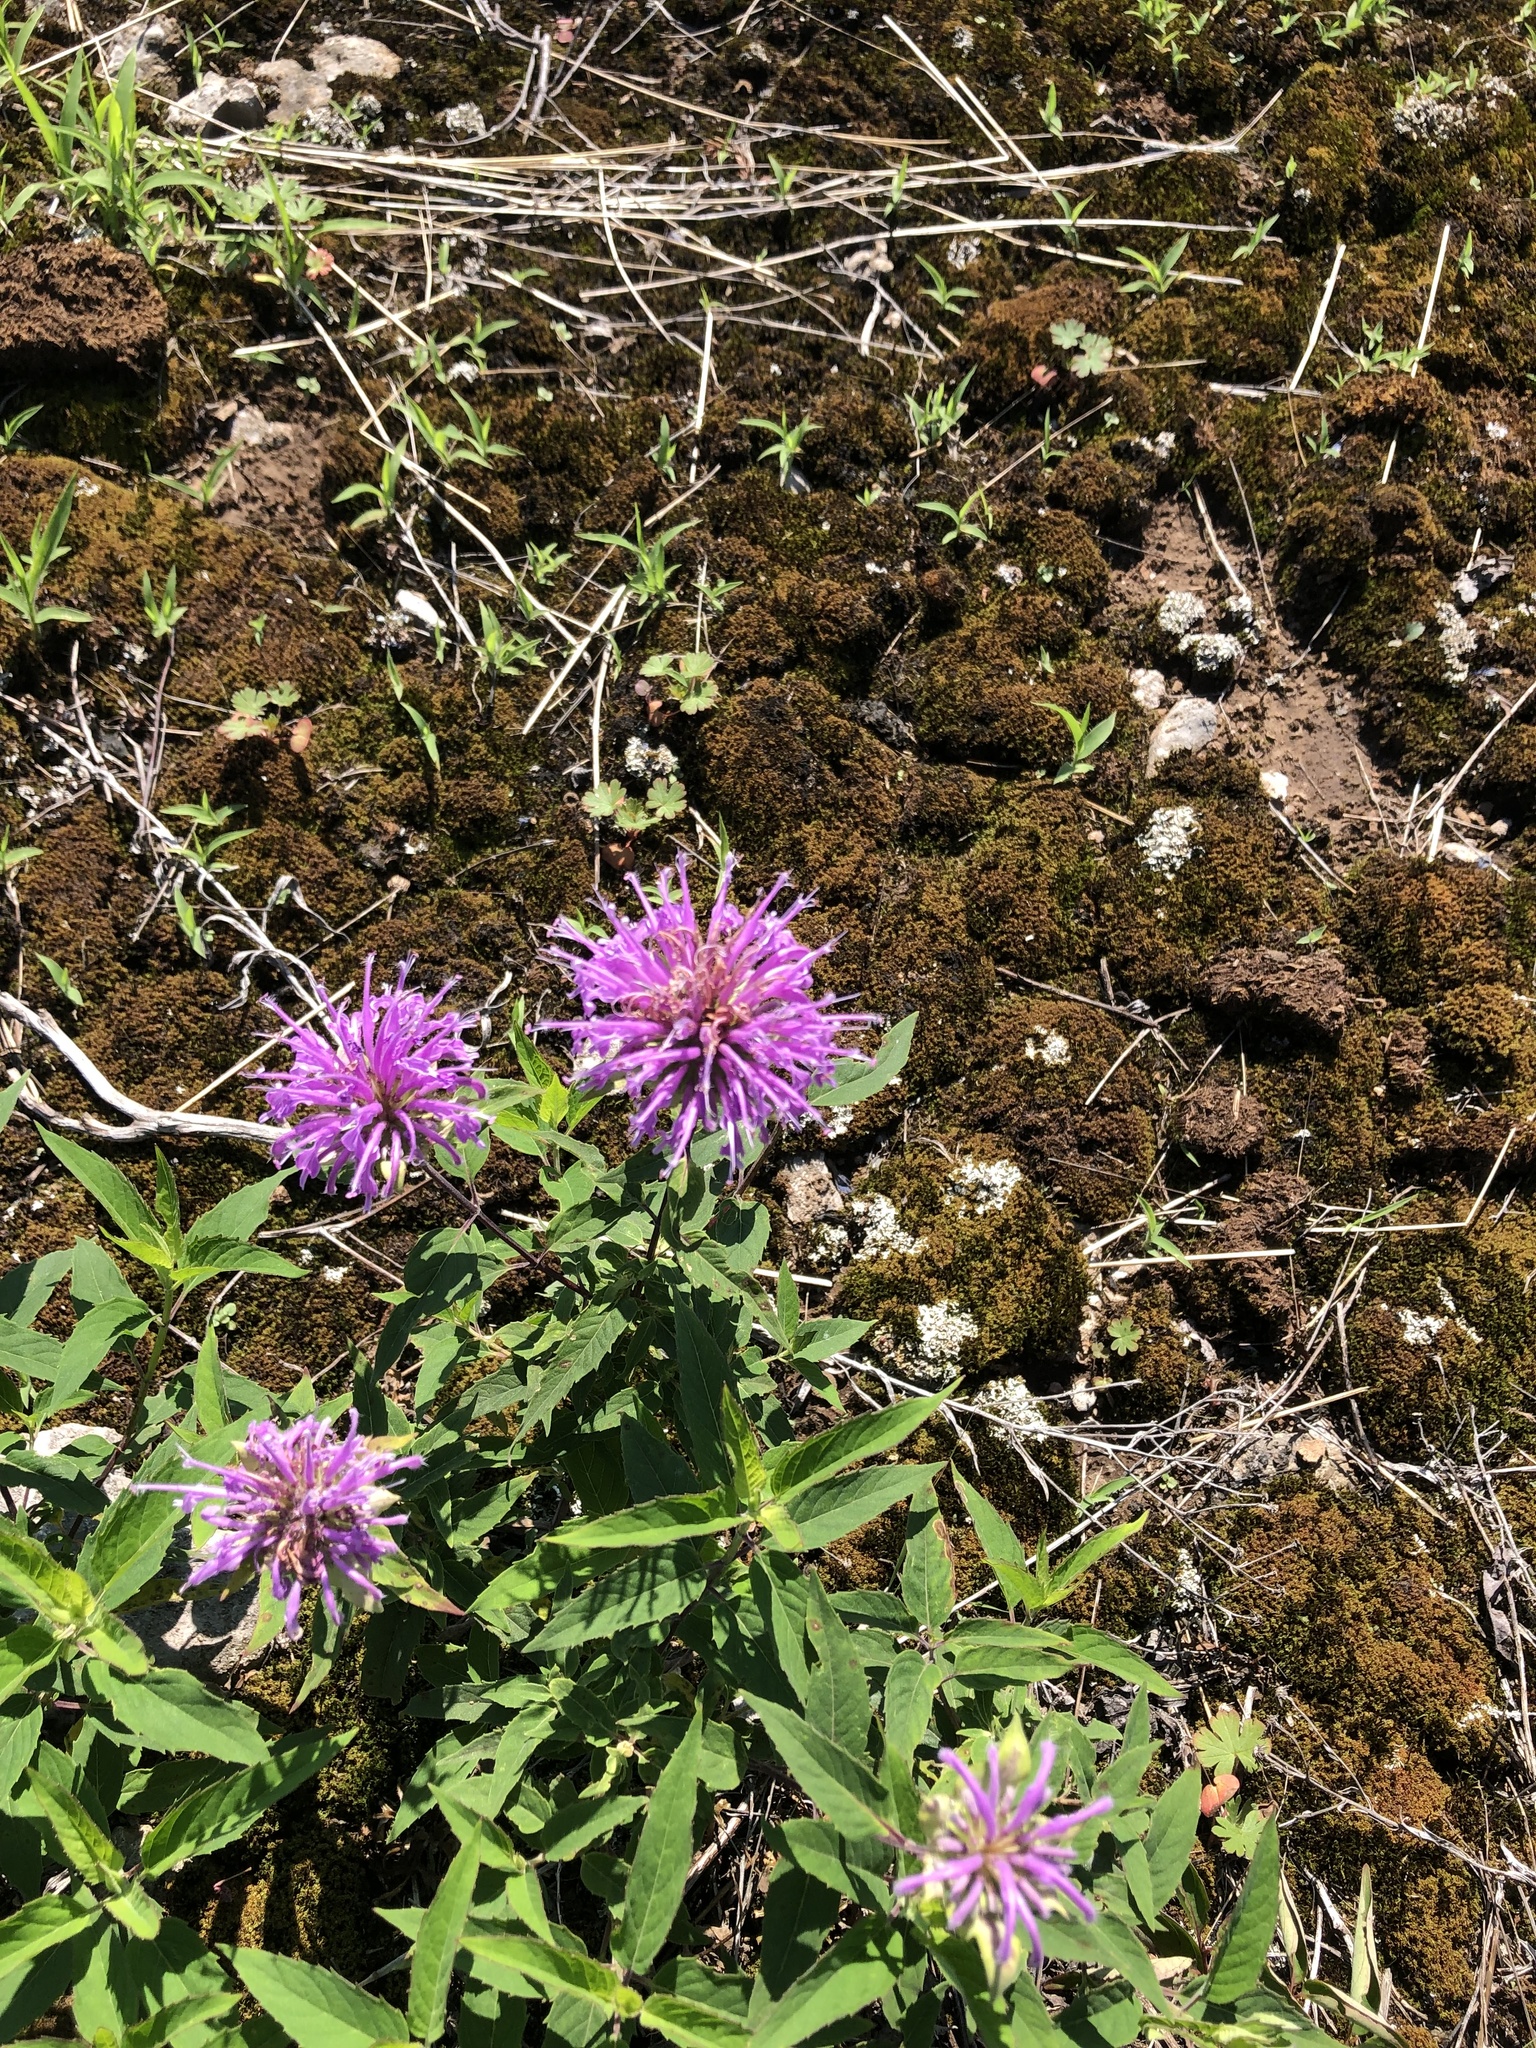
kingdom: Plantae
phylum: Tracheophyta
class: Magnoliopsida
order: Lamiales
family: Lamiaceae
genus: Monarda
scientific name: Monarda fistulosa
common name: Purple beebalm
